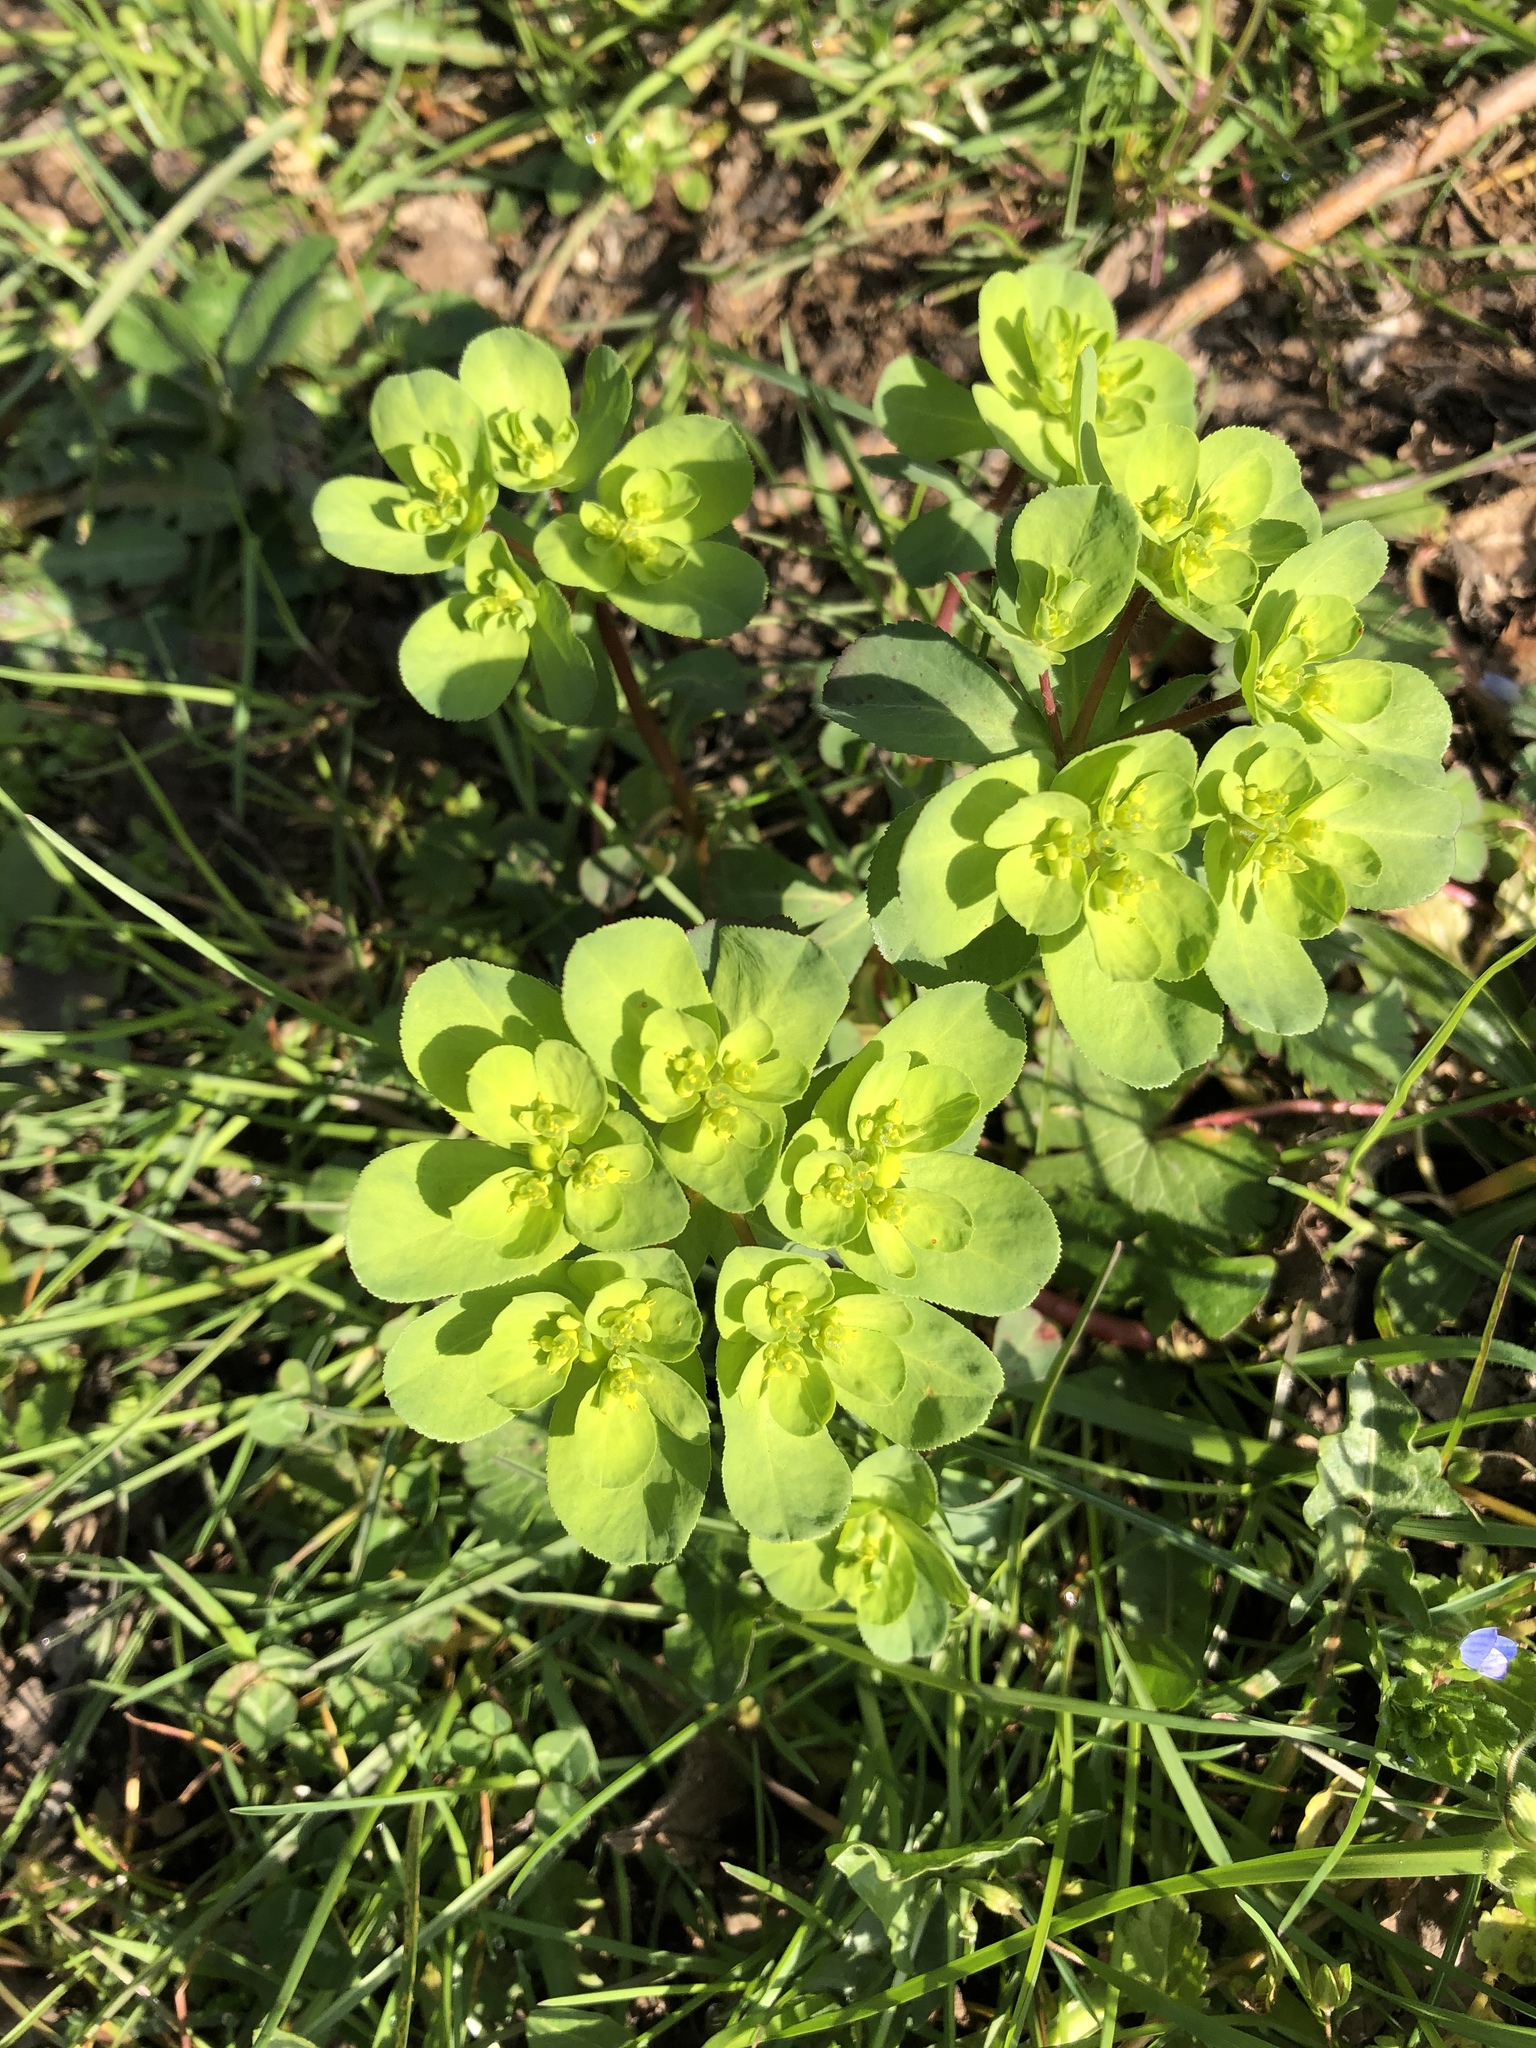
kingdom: Plantae
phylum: Tracheophyta
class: Magnoliopsida
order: Malpighiales
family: Euphorbiaceae
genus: Euphorbia
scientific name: Euphorbia helioscopia
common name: Sun spurge
